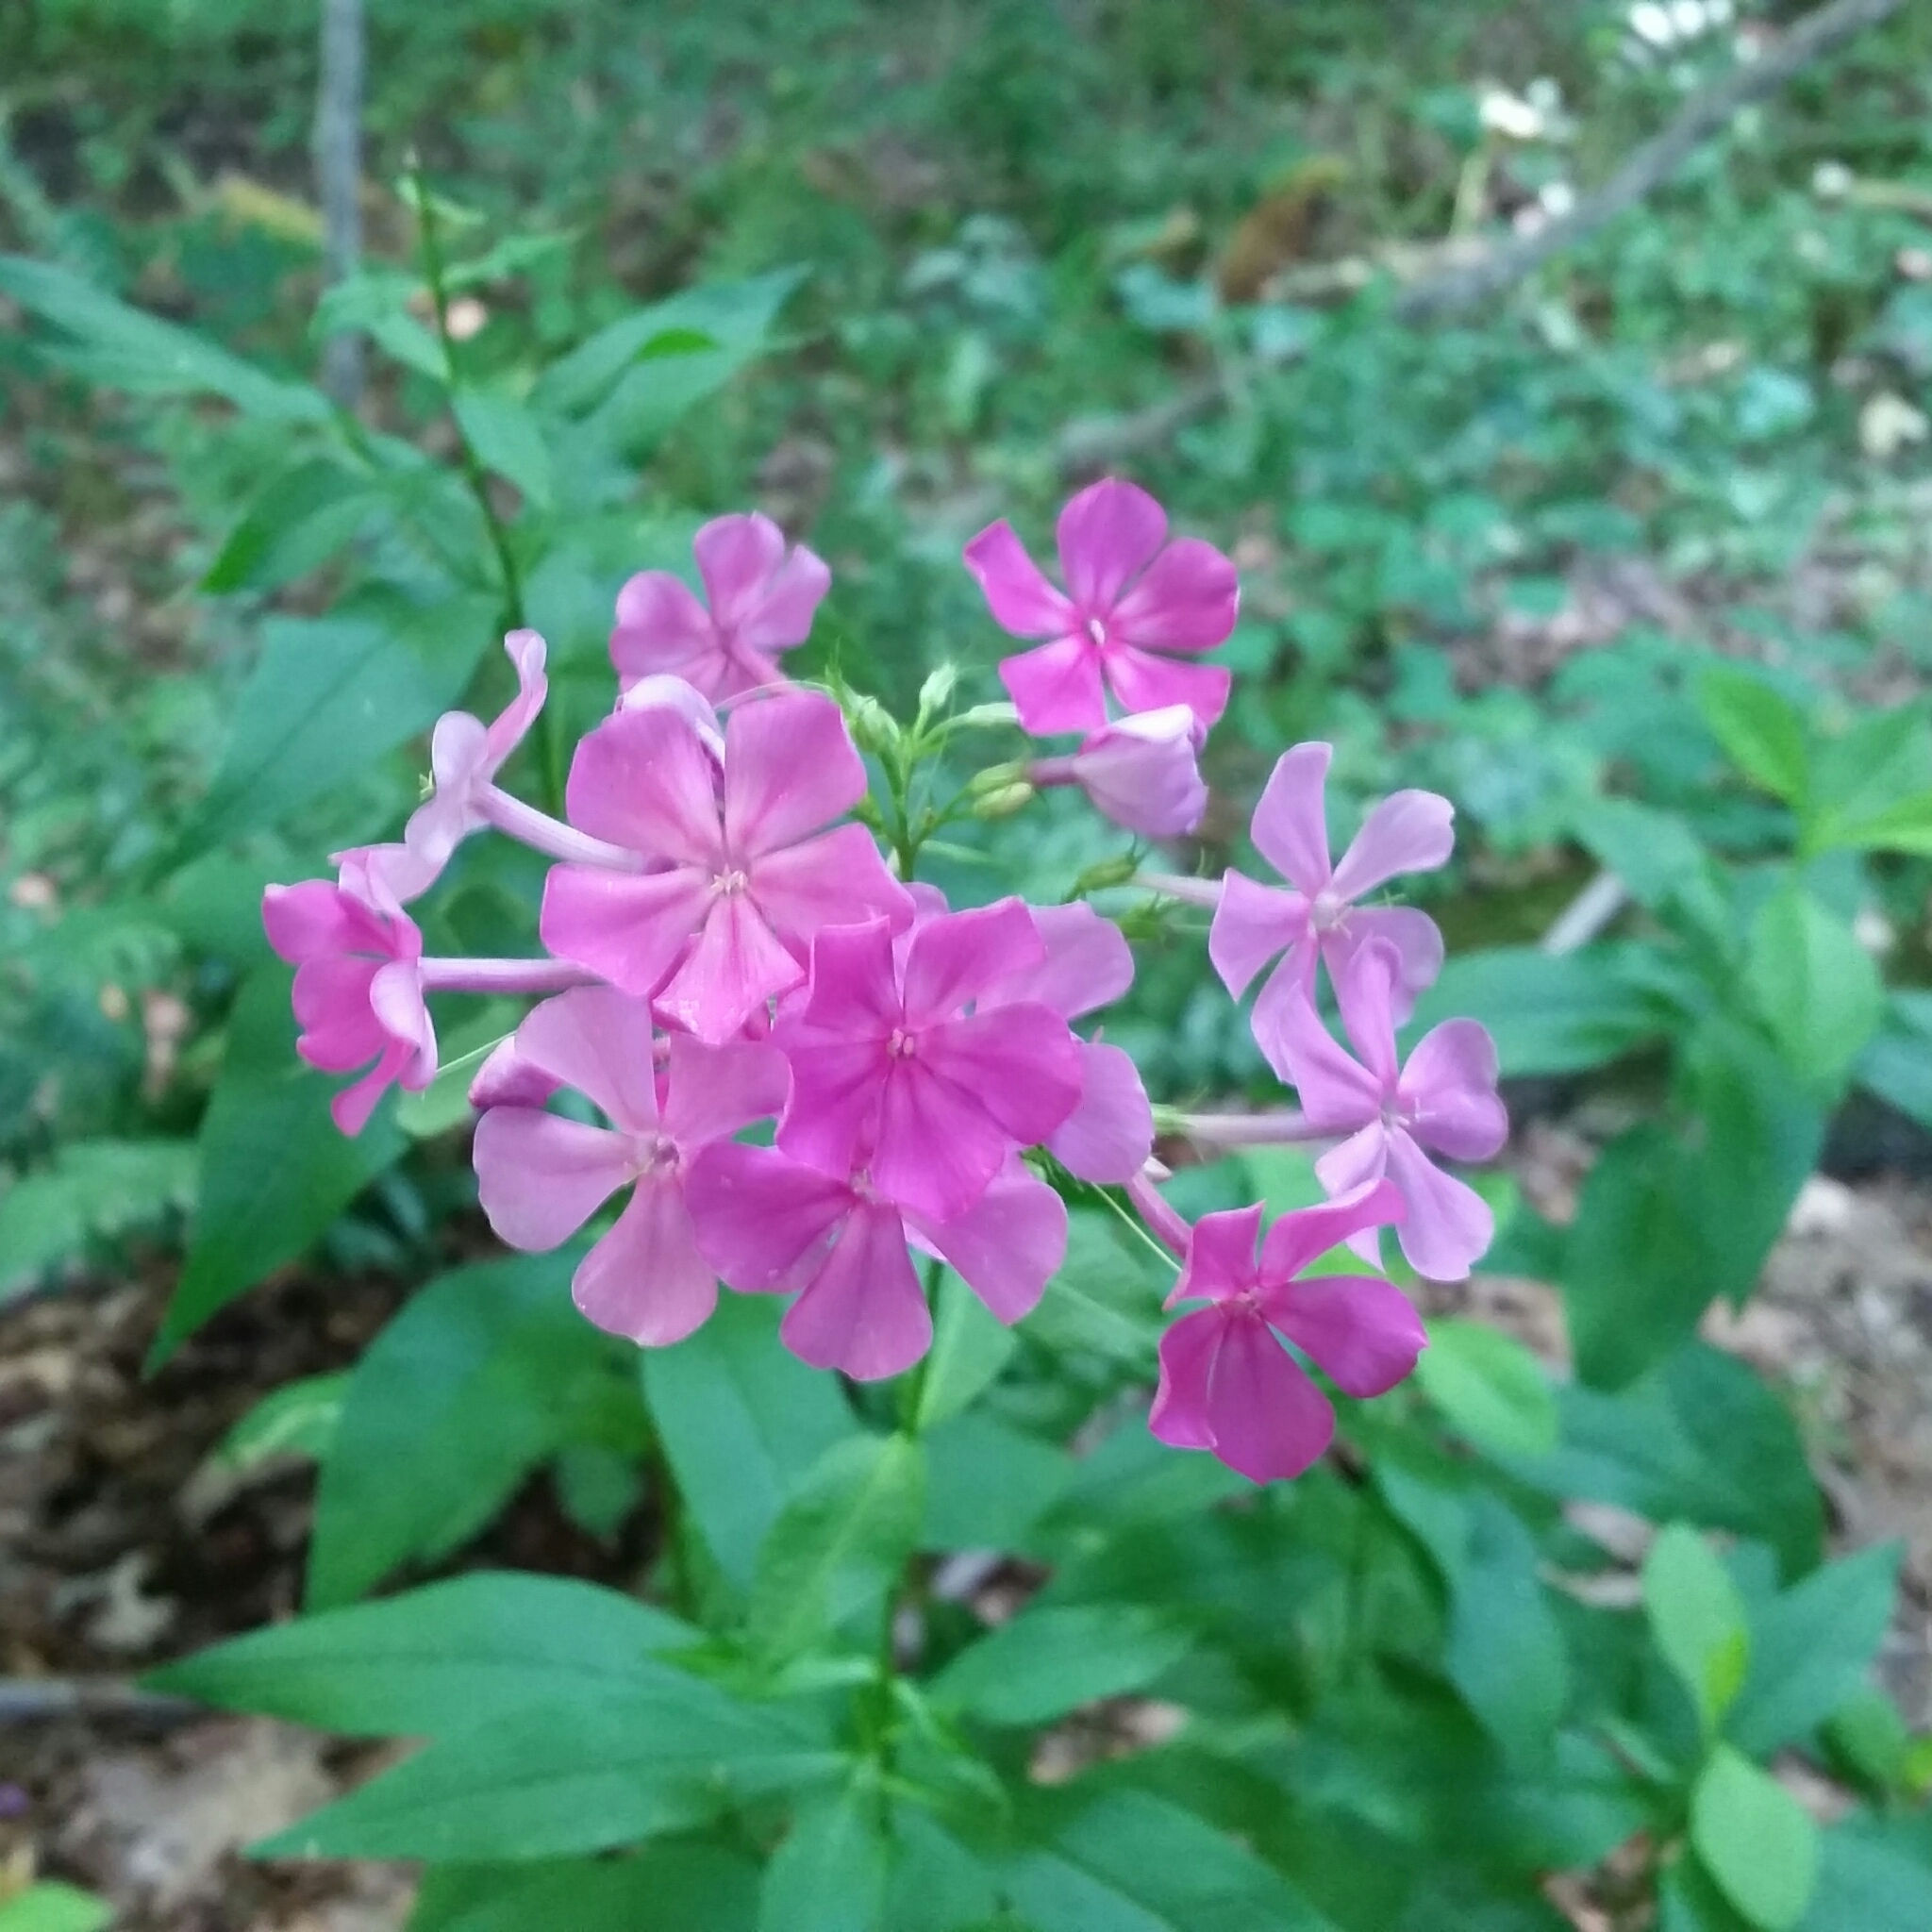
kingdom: Plantae
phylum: Tracheophyta
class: Magnoliopsida
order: Ericales
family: Polemoniaceae
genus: Phlox
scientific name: Phlox paniculata
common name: Fall phlox
